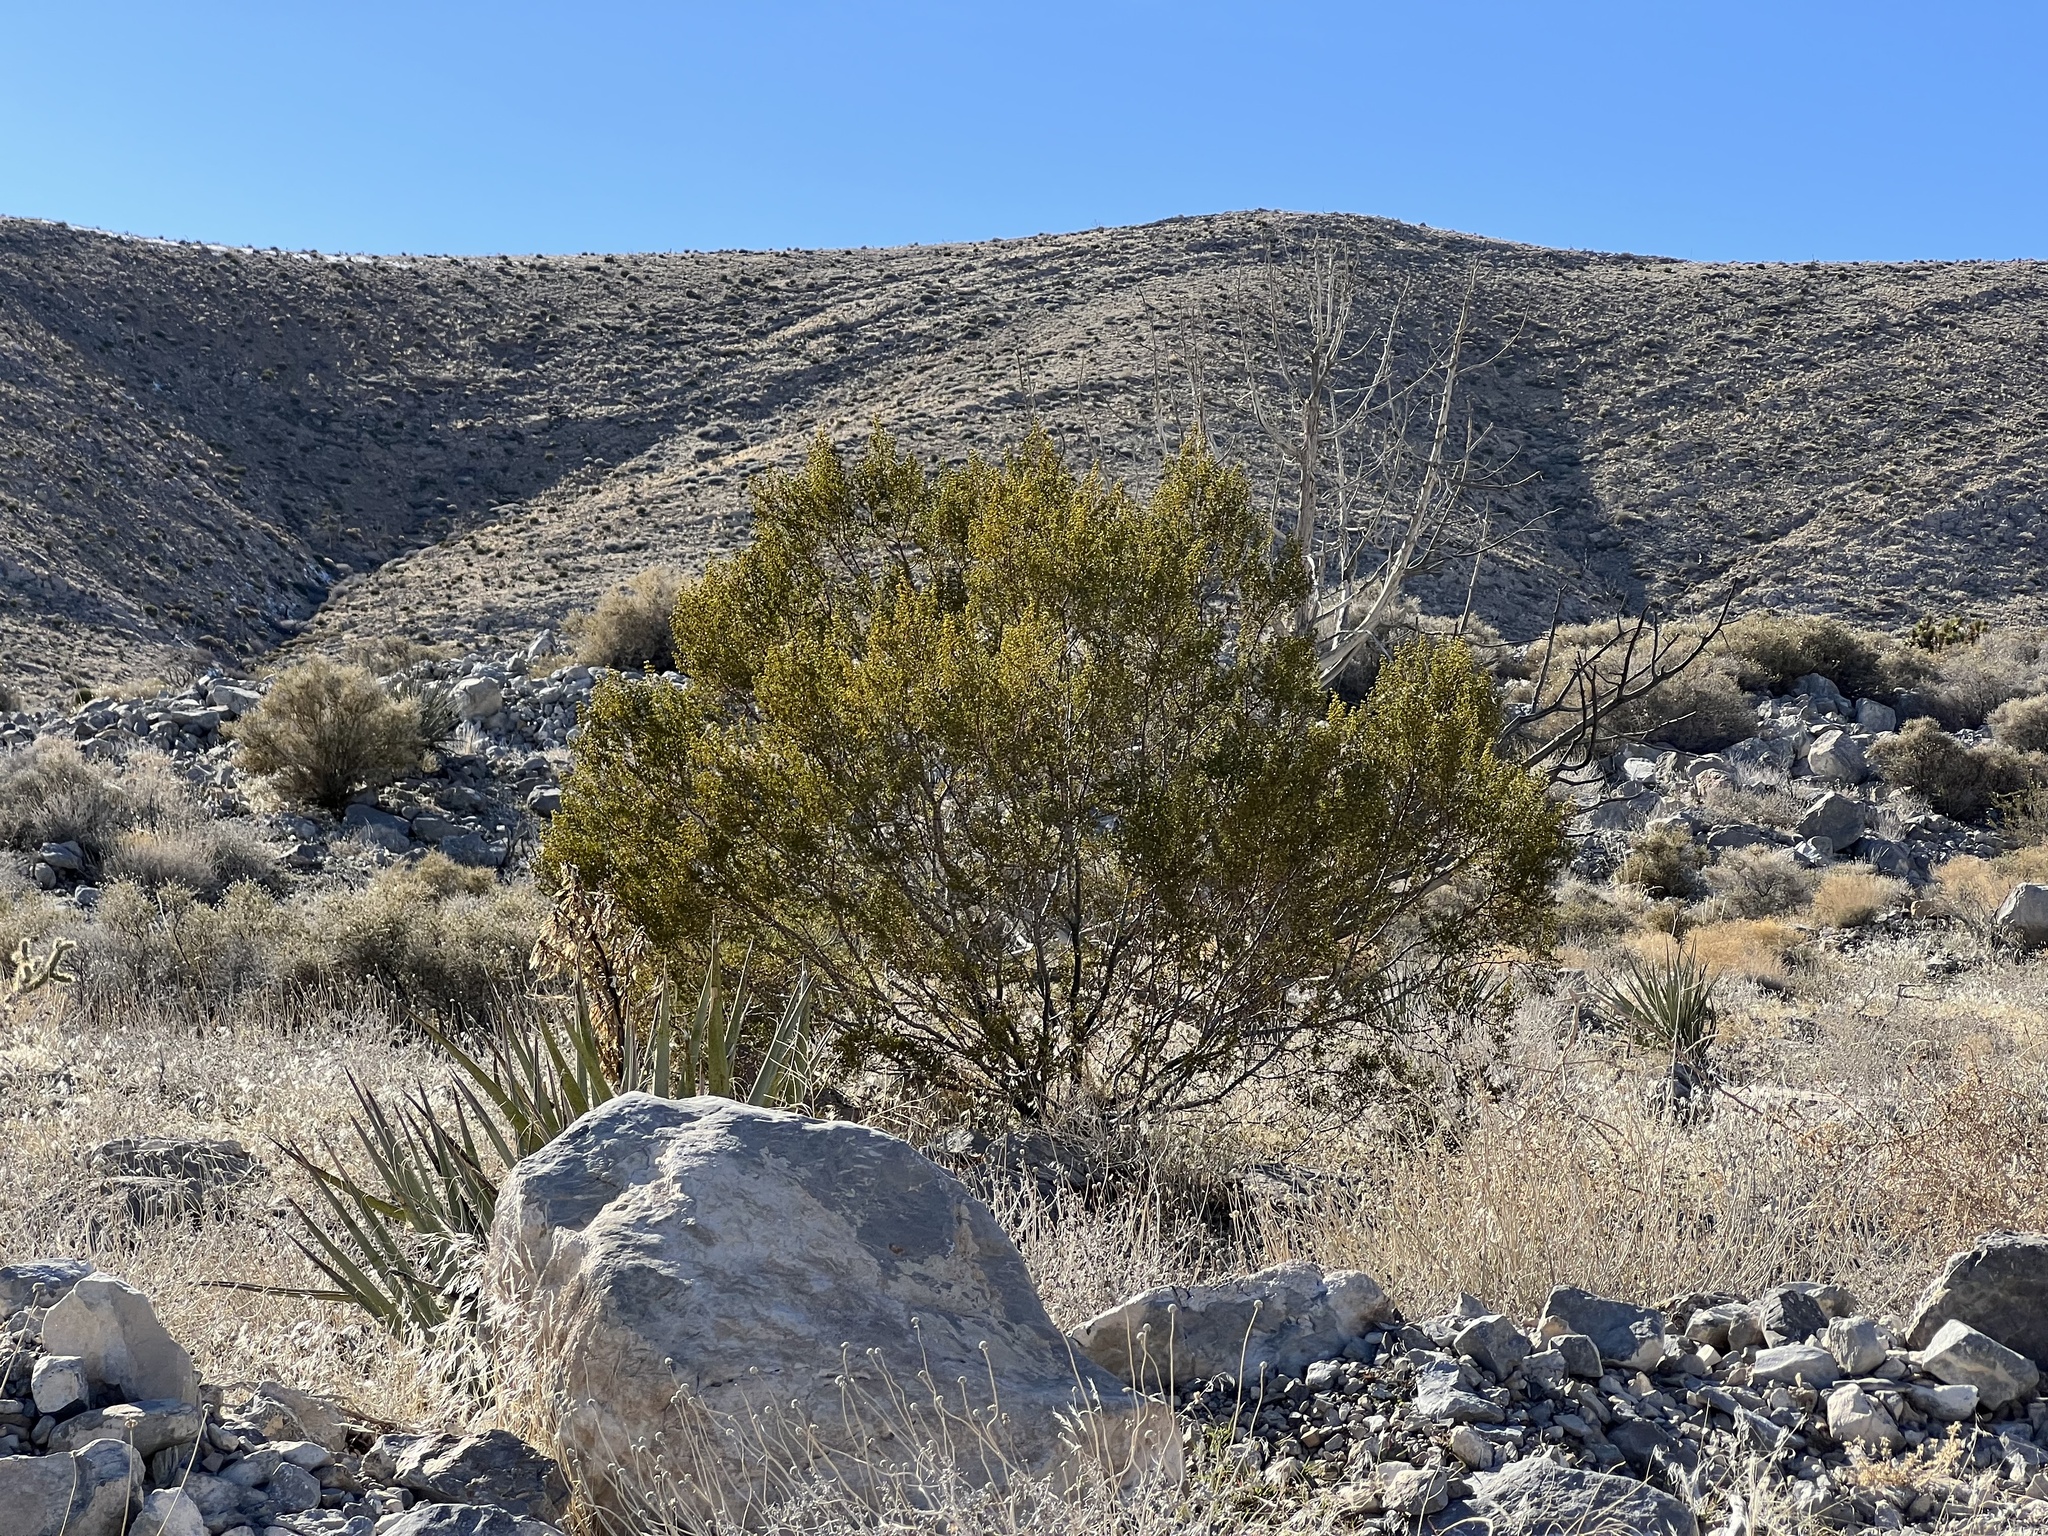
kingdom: Plantae
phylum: Tracheophyta
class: Magnoliopsida
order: Zygophyllales
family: Zygophyllaceae
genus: Larrea
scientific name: Larrea tridentata
